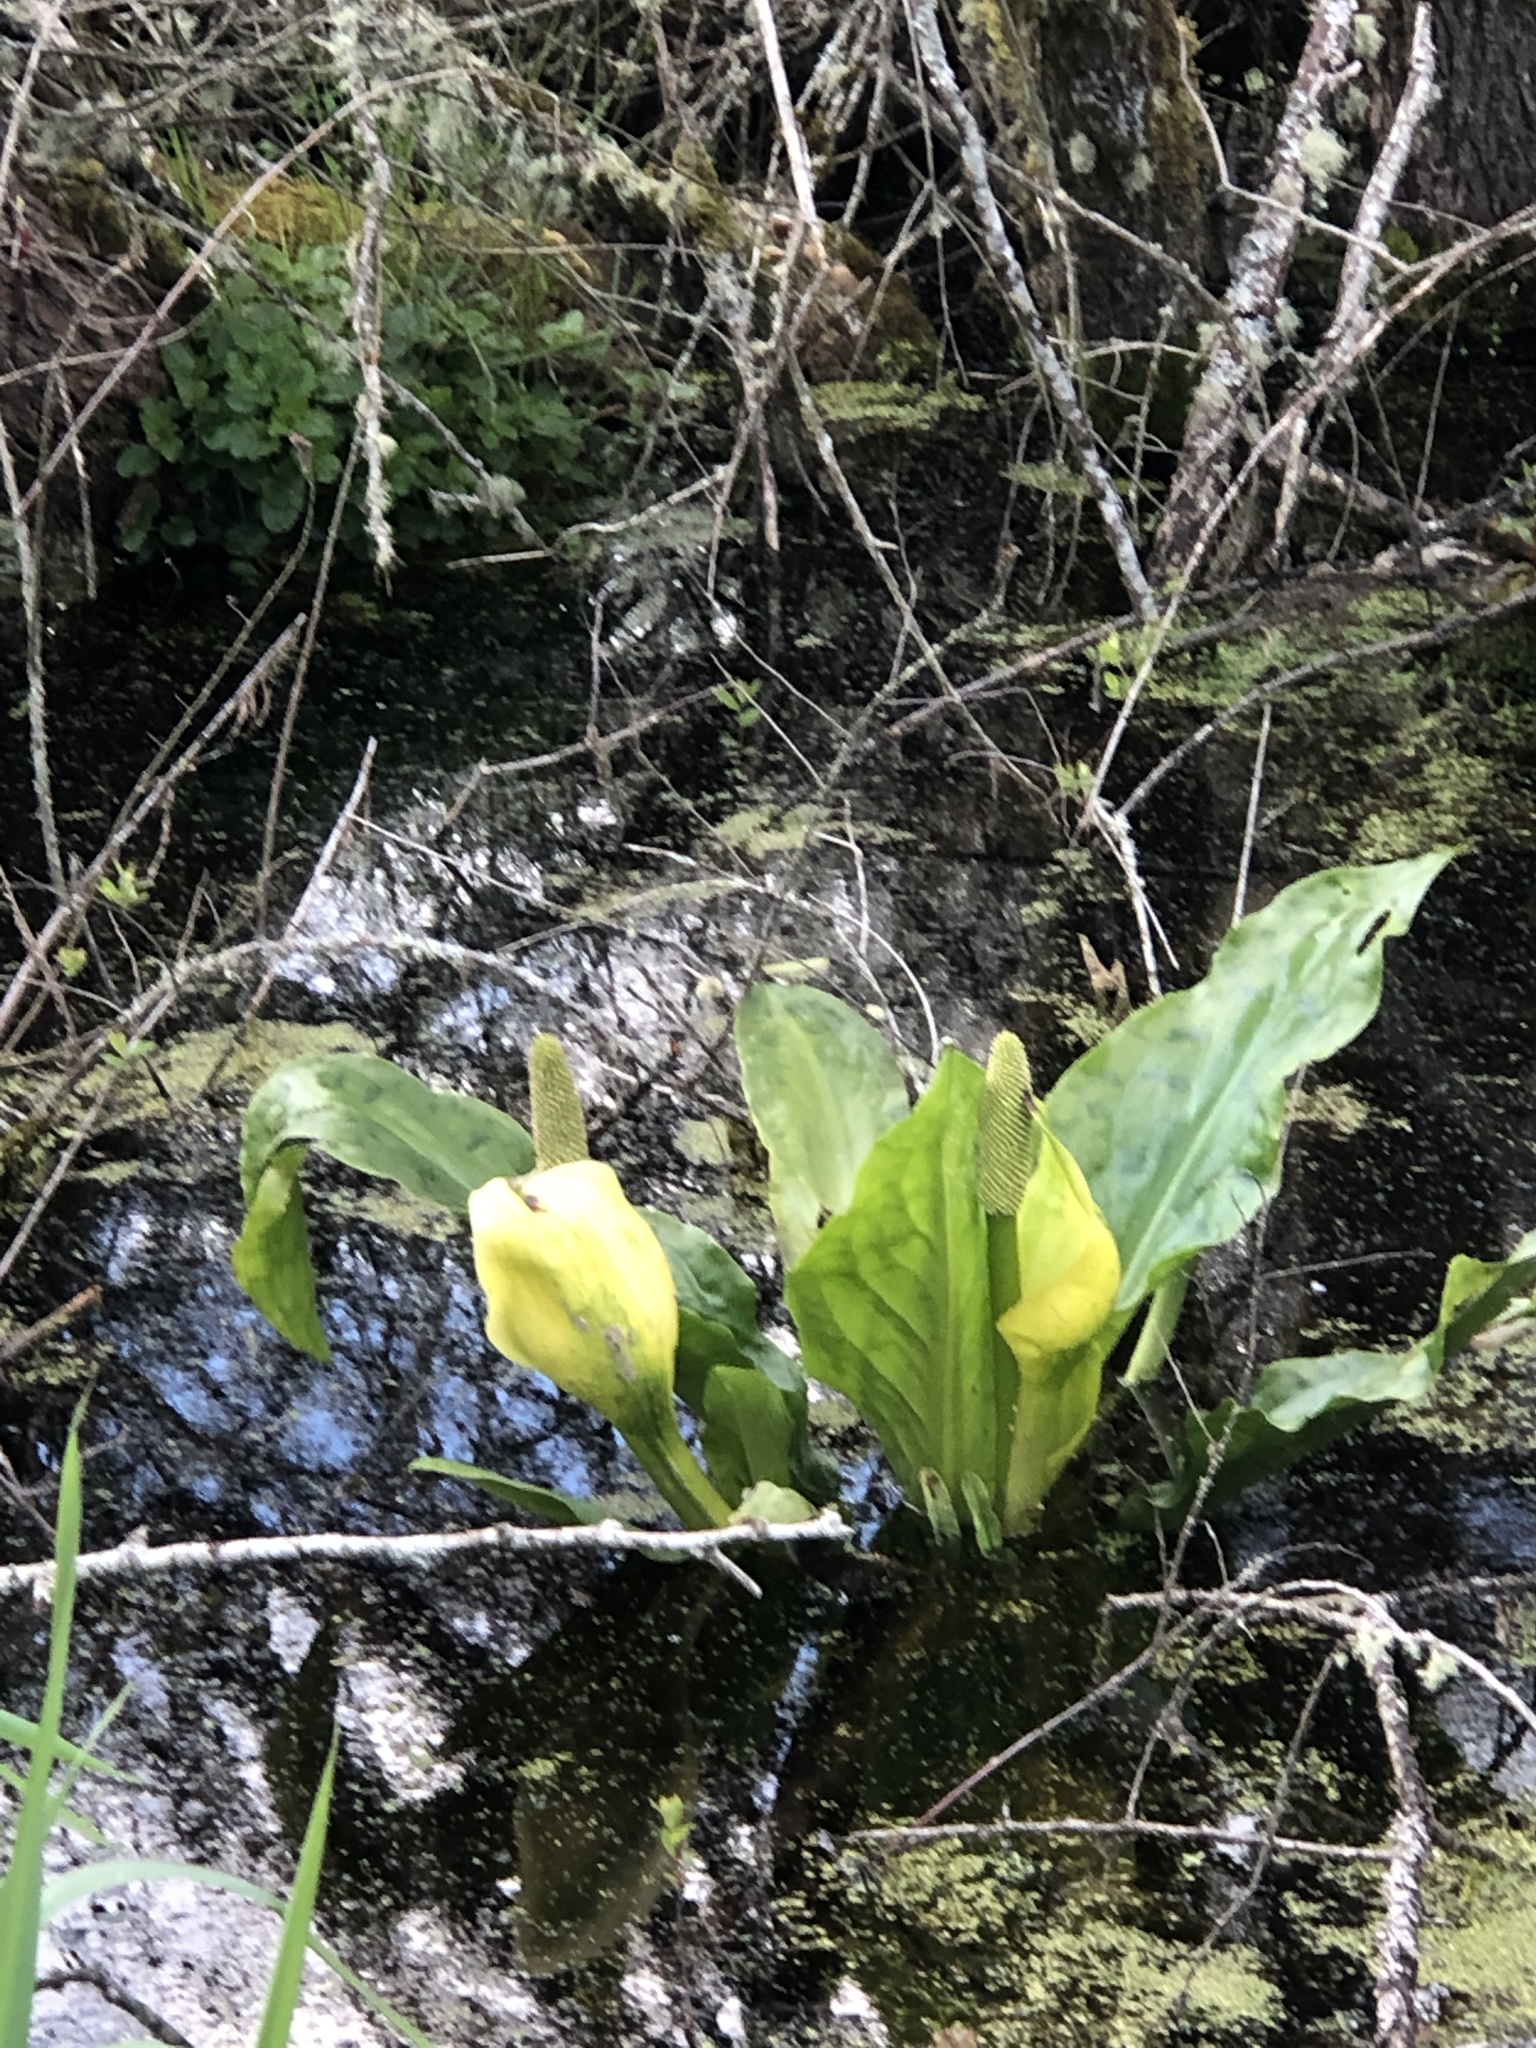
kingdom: Plantae
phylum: Tracheophyta
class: Liliopsida
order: Alismatales
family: Araceae
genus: Lysichiton
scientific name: Lysichiton americanus
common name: American skunk cabbage
